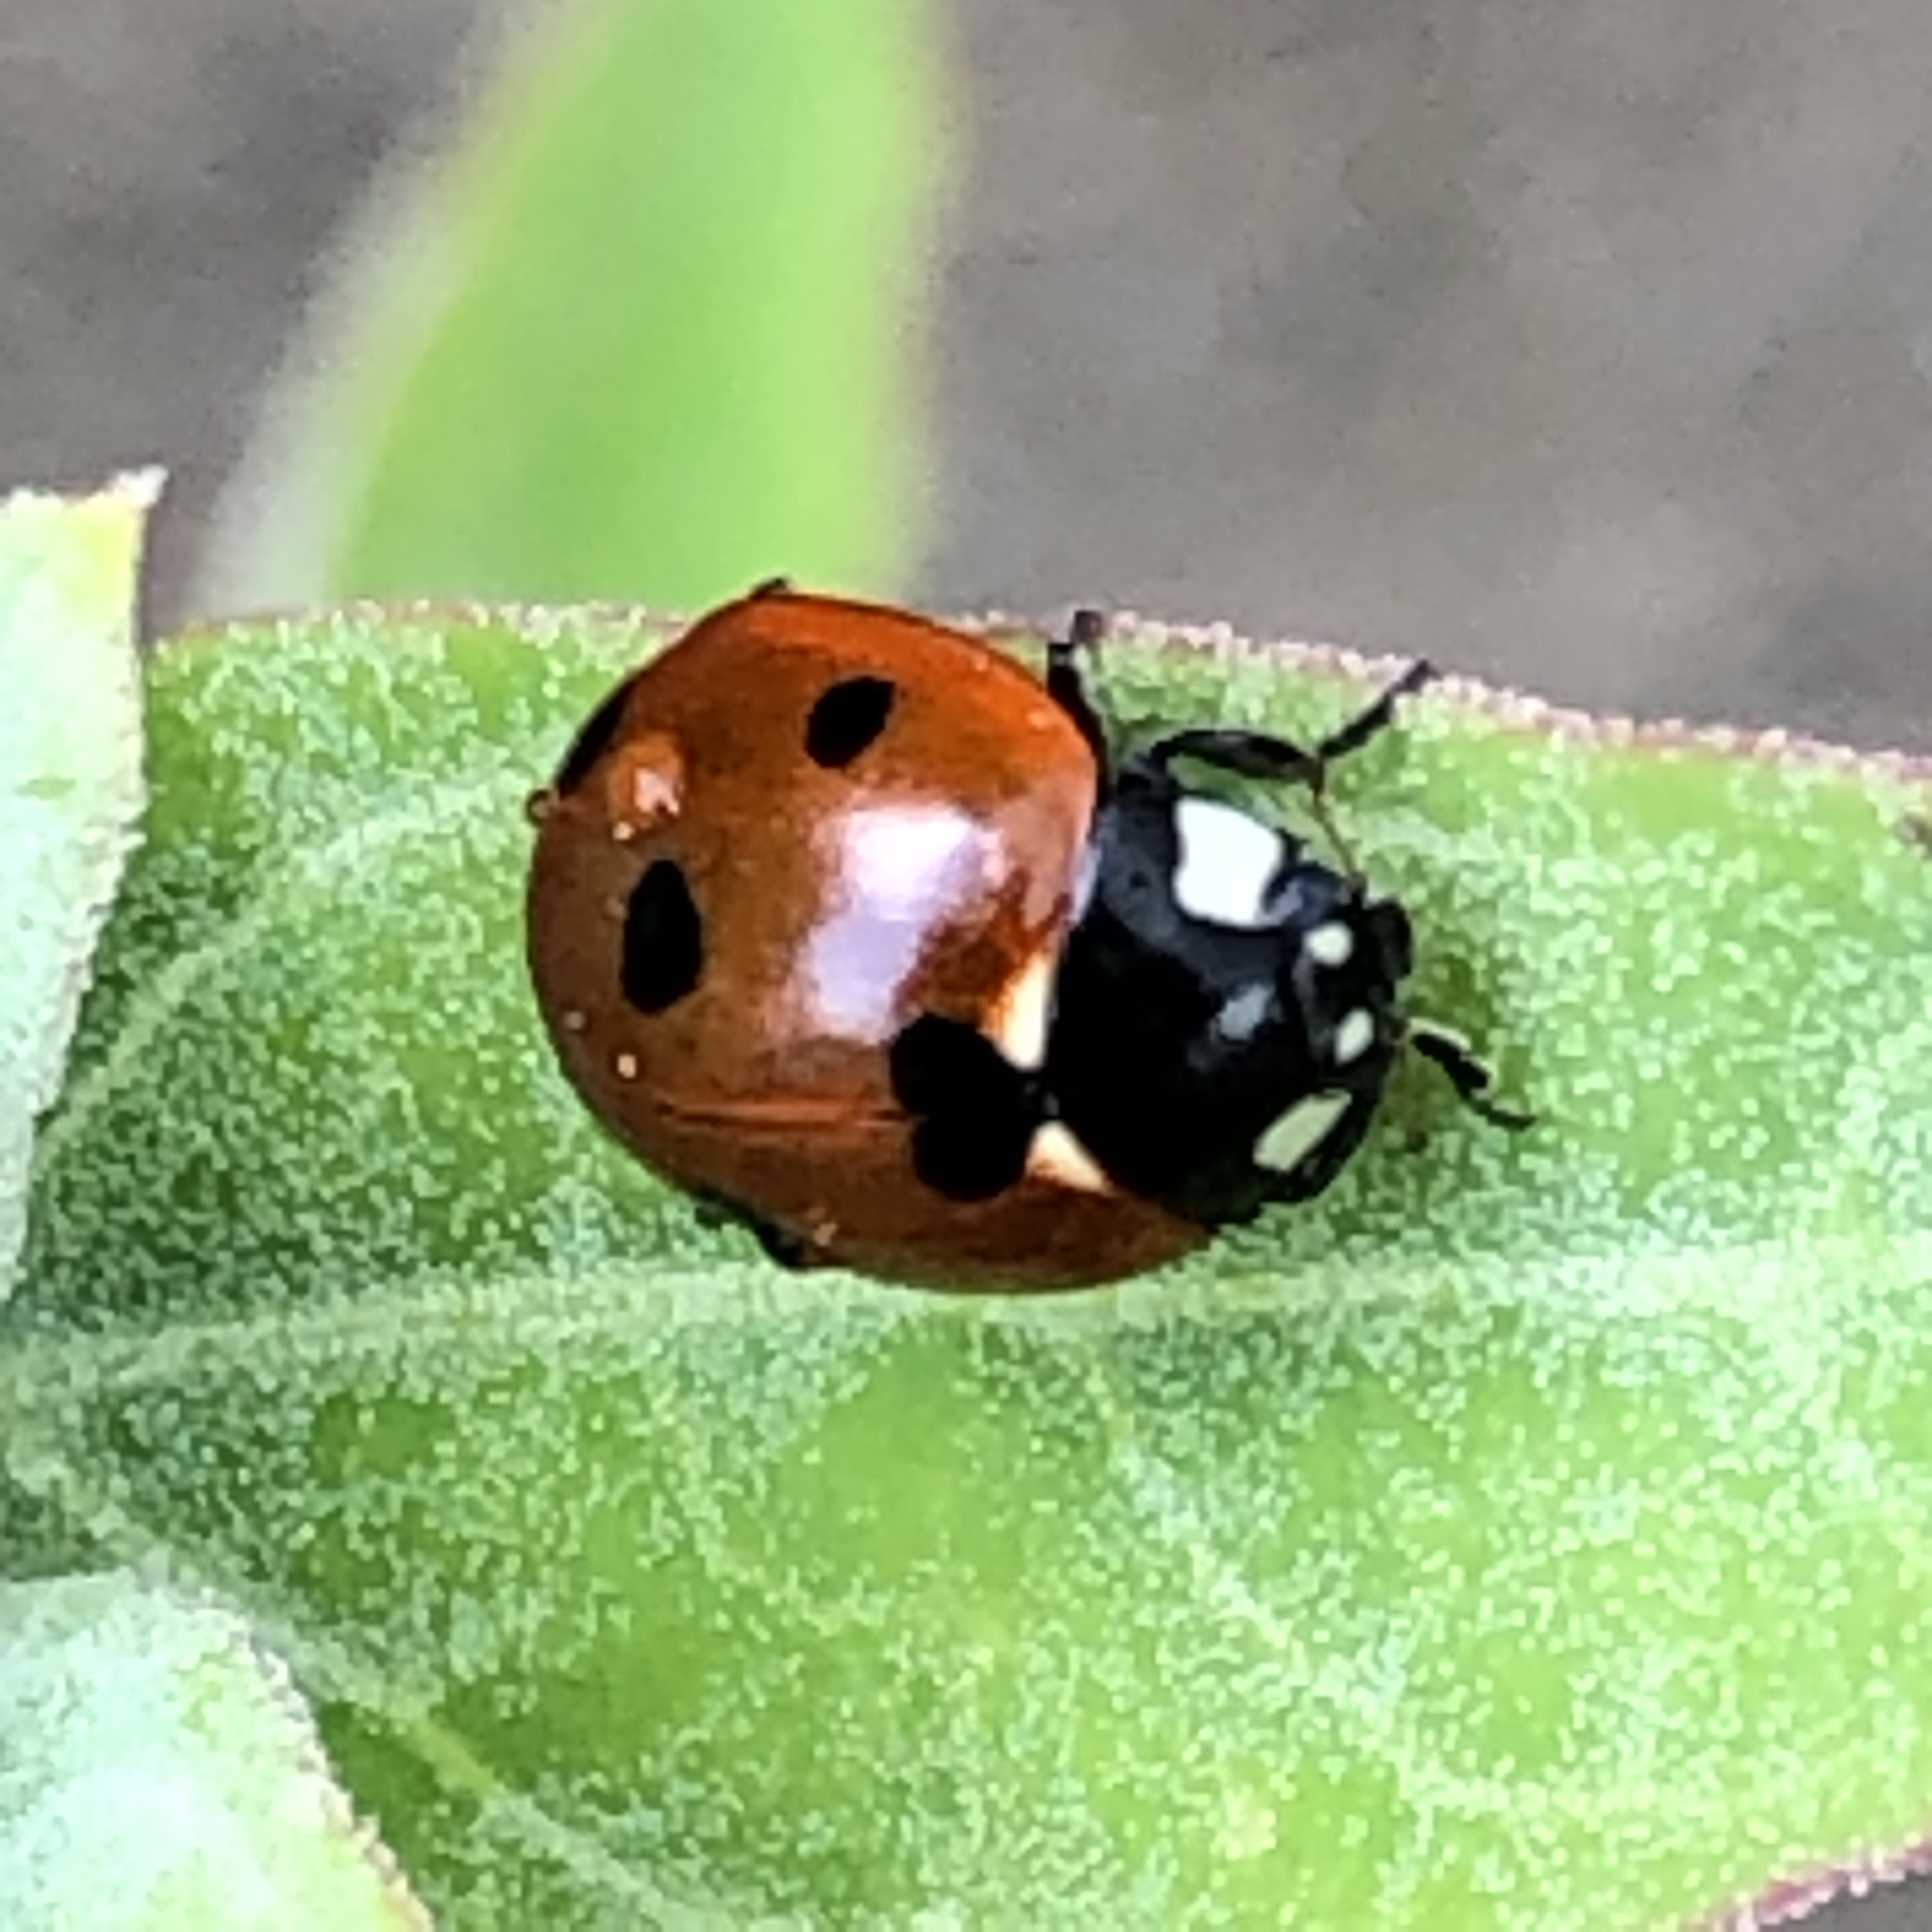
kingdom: Animalia
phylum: Arthropoda
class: Insecta
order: Coleoptera
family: Coccinellidae
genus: Coccinella
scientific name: Coccinella septempunctata
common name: Sevenspotted lady beetle
